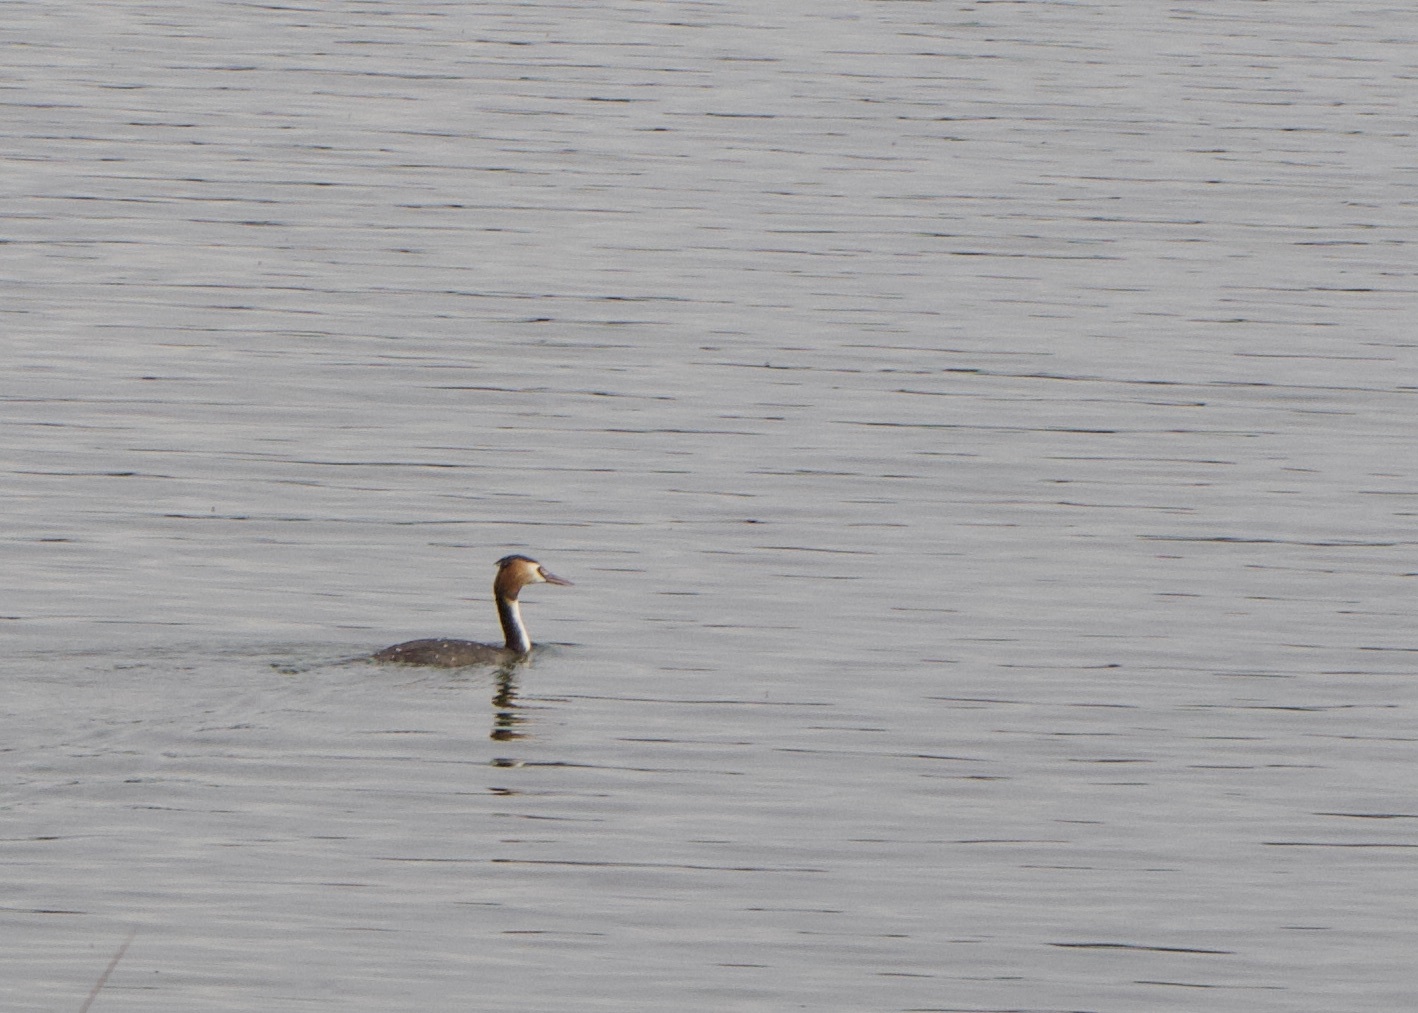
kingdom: Animalia
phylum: Chordata
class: Aves
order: Podicipediformes
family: Podicipedidae
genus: Podiceps
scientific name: Podiceps cristatus
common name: Great crested grebe
